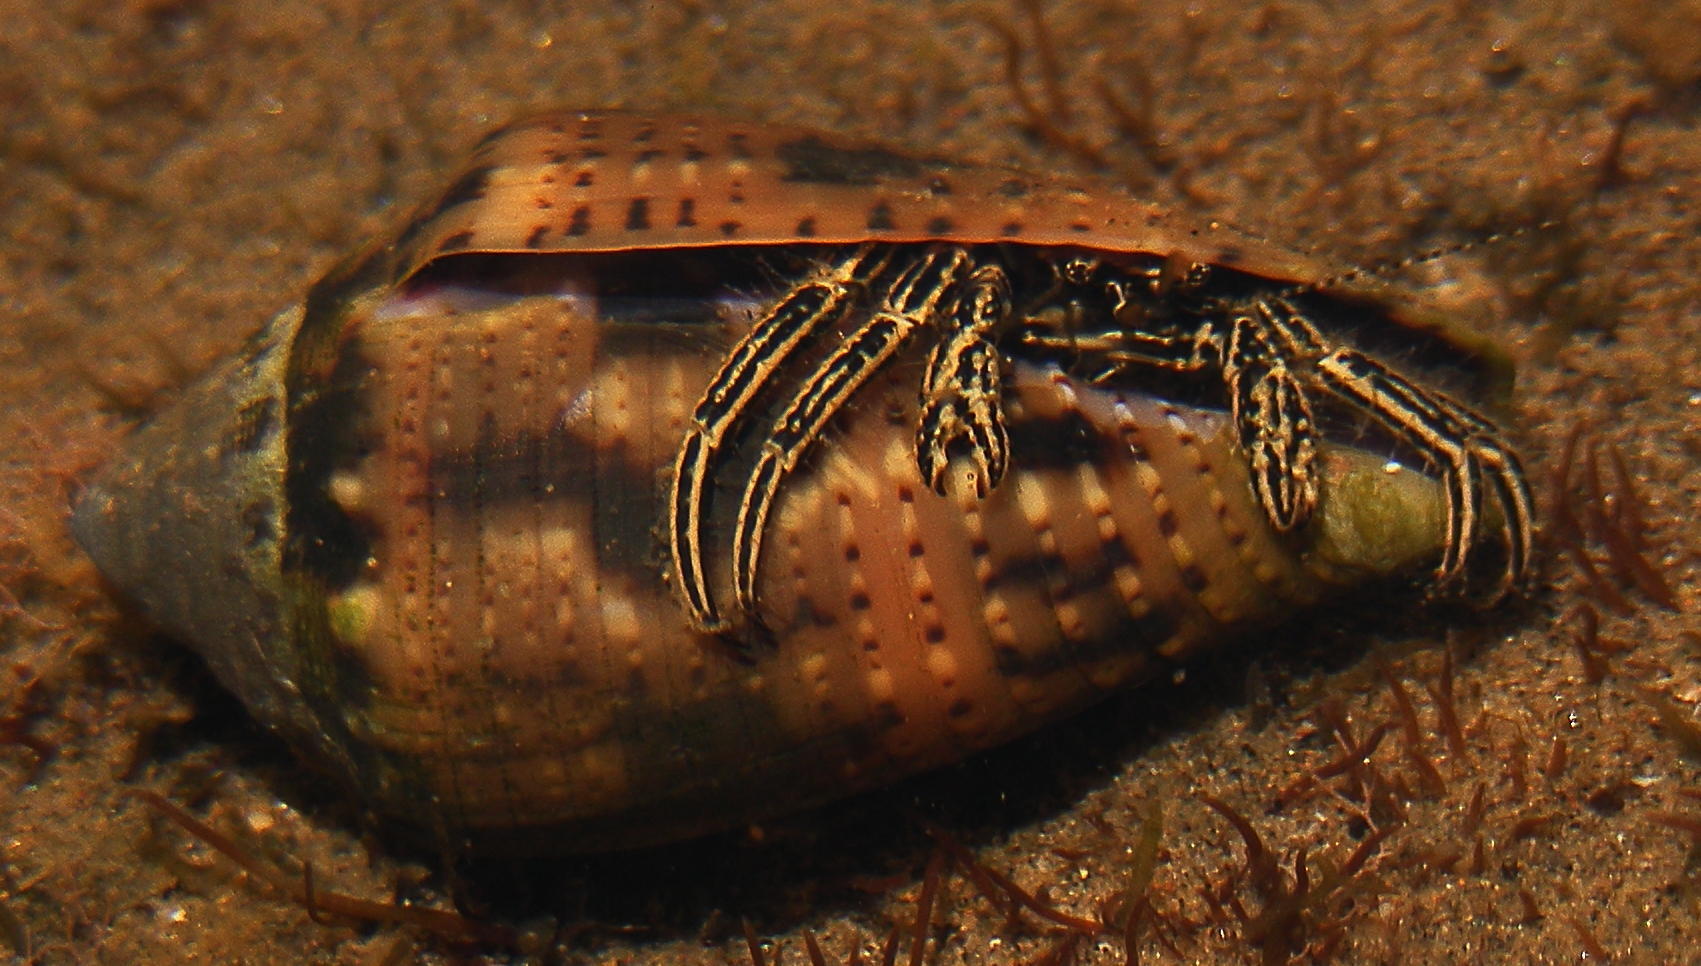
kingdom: Animalia
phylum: Arthropoda
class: Malacostraca
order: Decapoda
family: Diogenidae
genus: Clibanarius
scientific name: Clibanarius eurysternus
